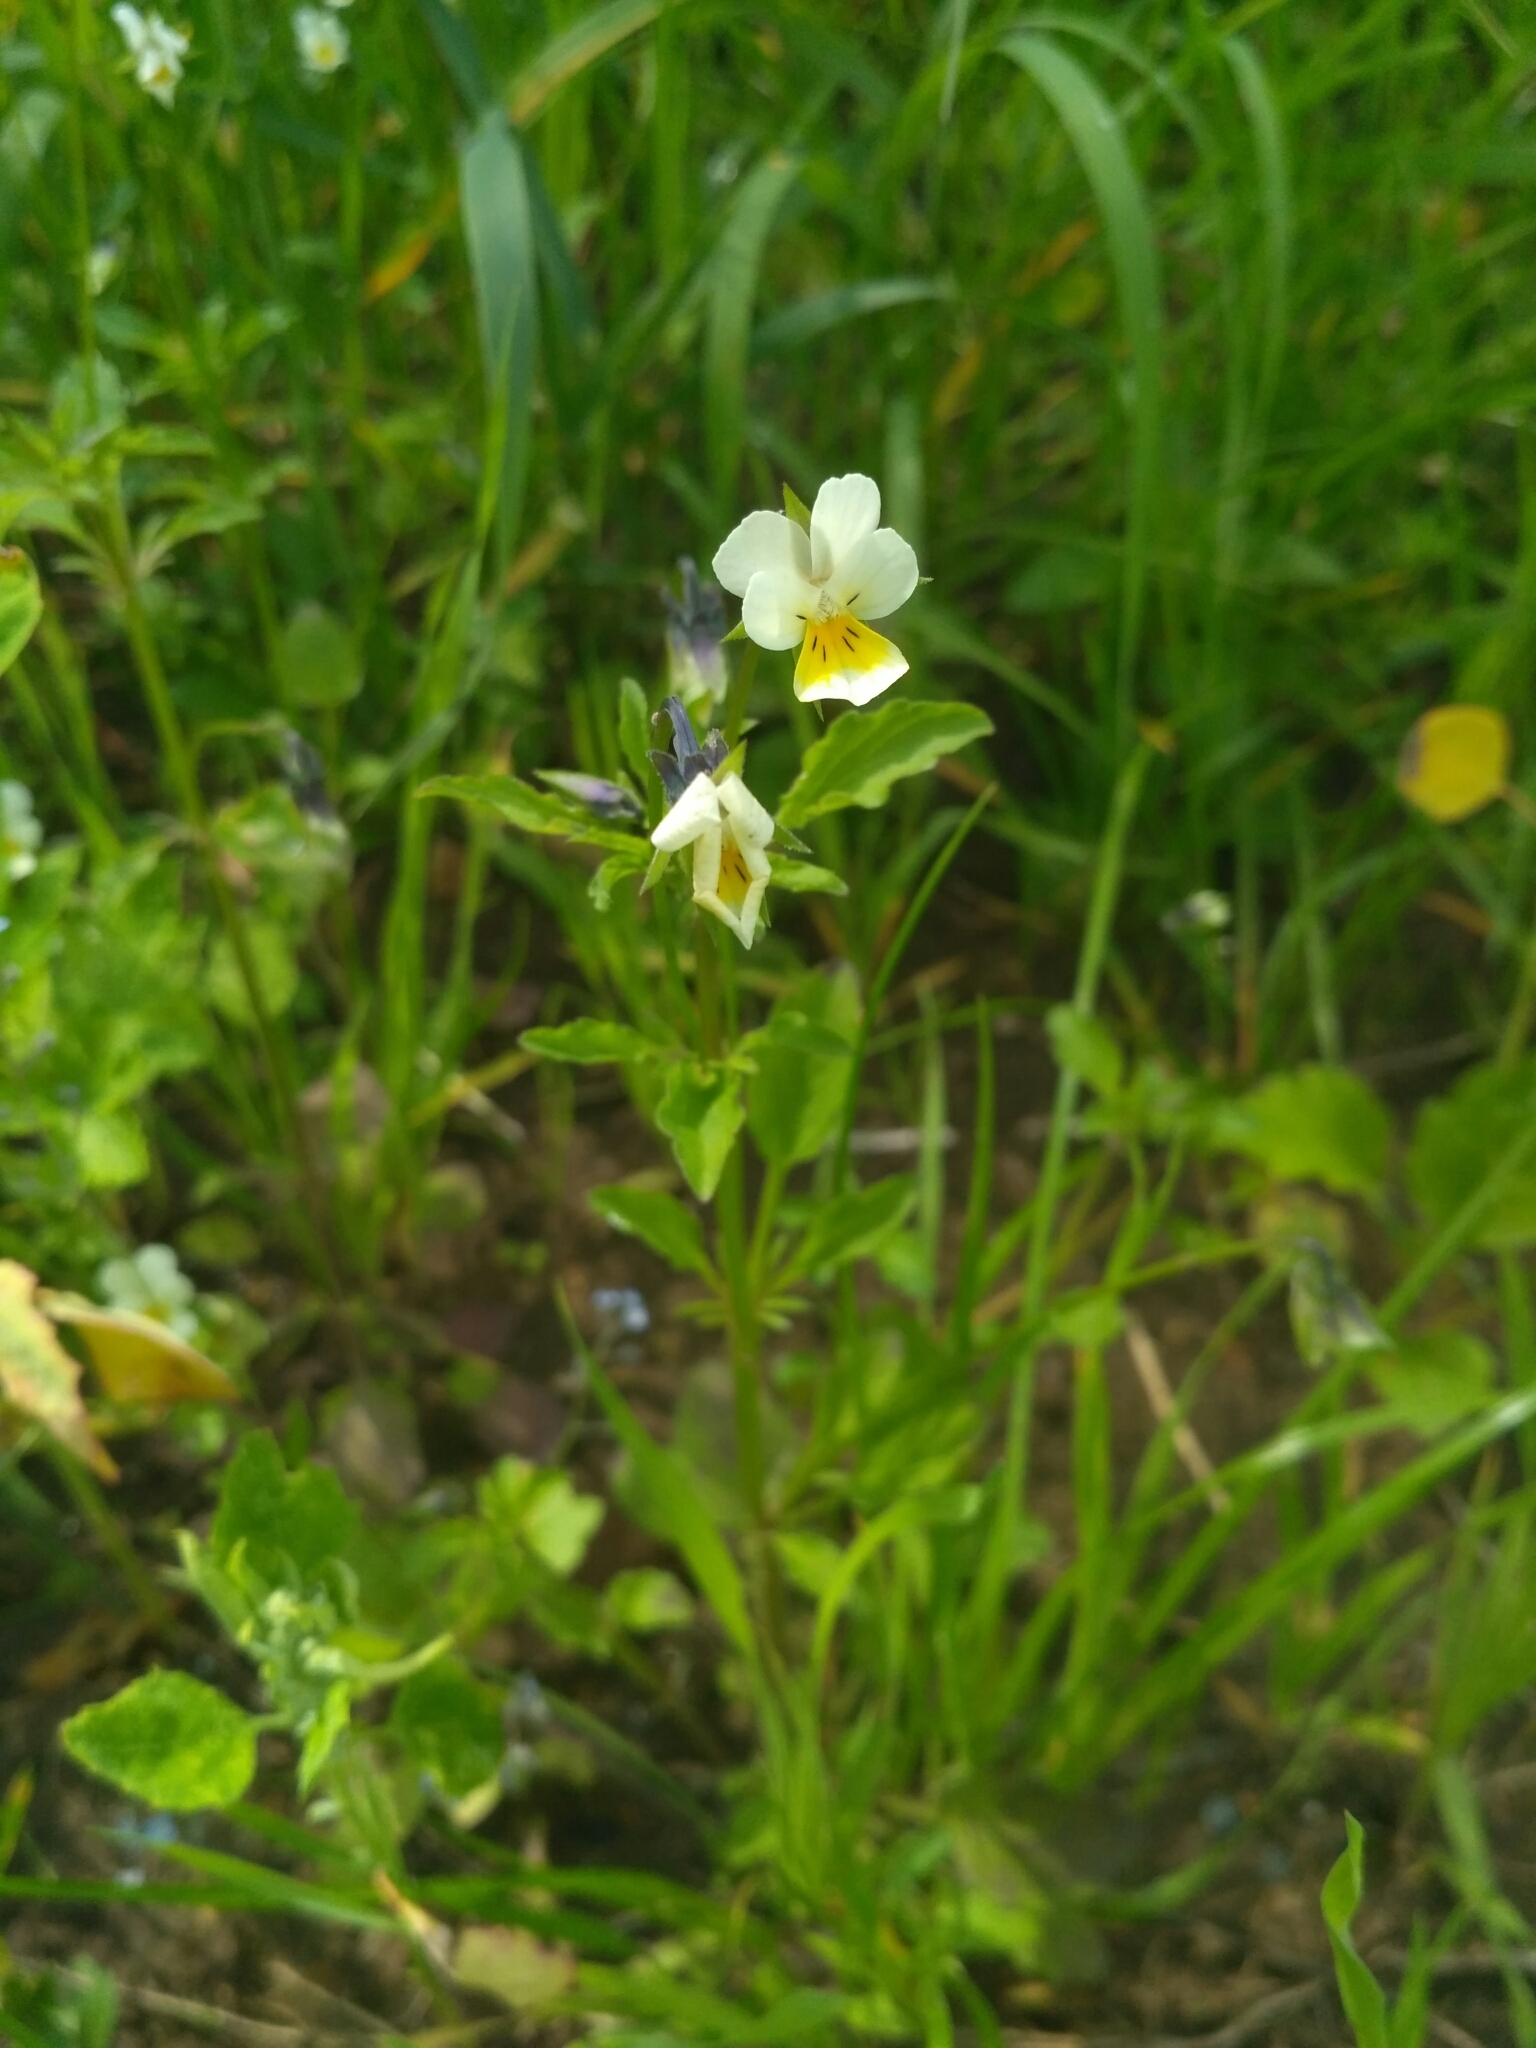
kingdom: Plantae
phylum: Tracheophyta
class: Magnoliopsida
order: Malpighiales
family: Violaceae
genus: Viola
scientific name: Viola arvensis
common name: Field pansy
